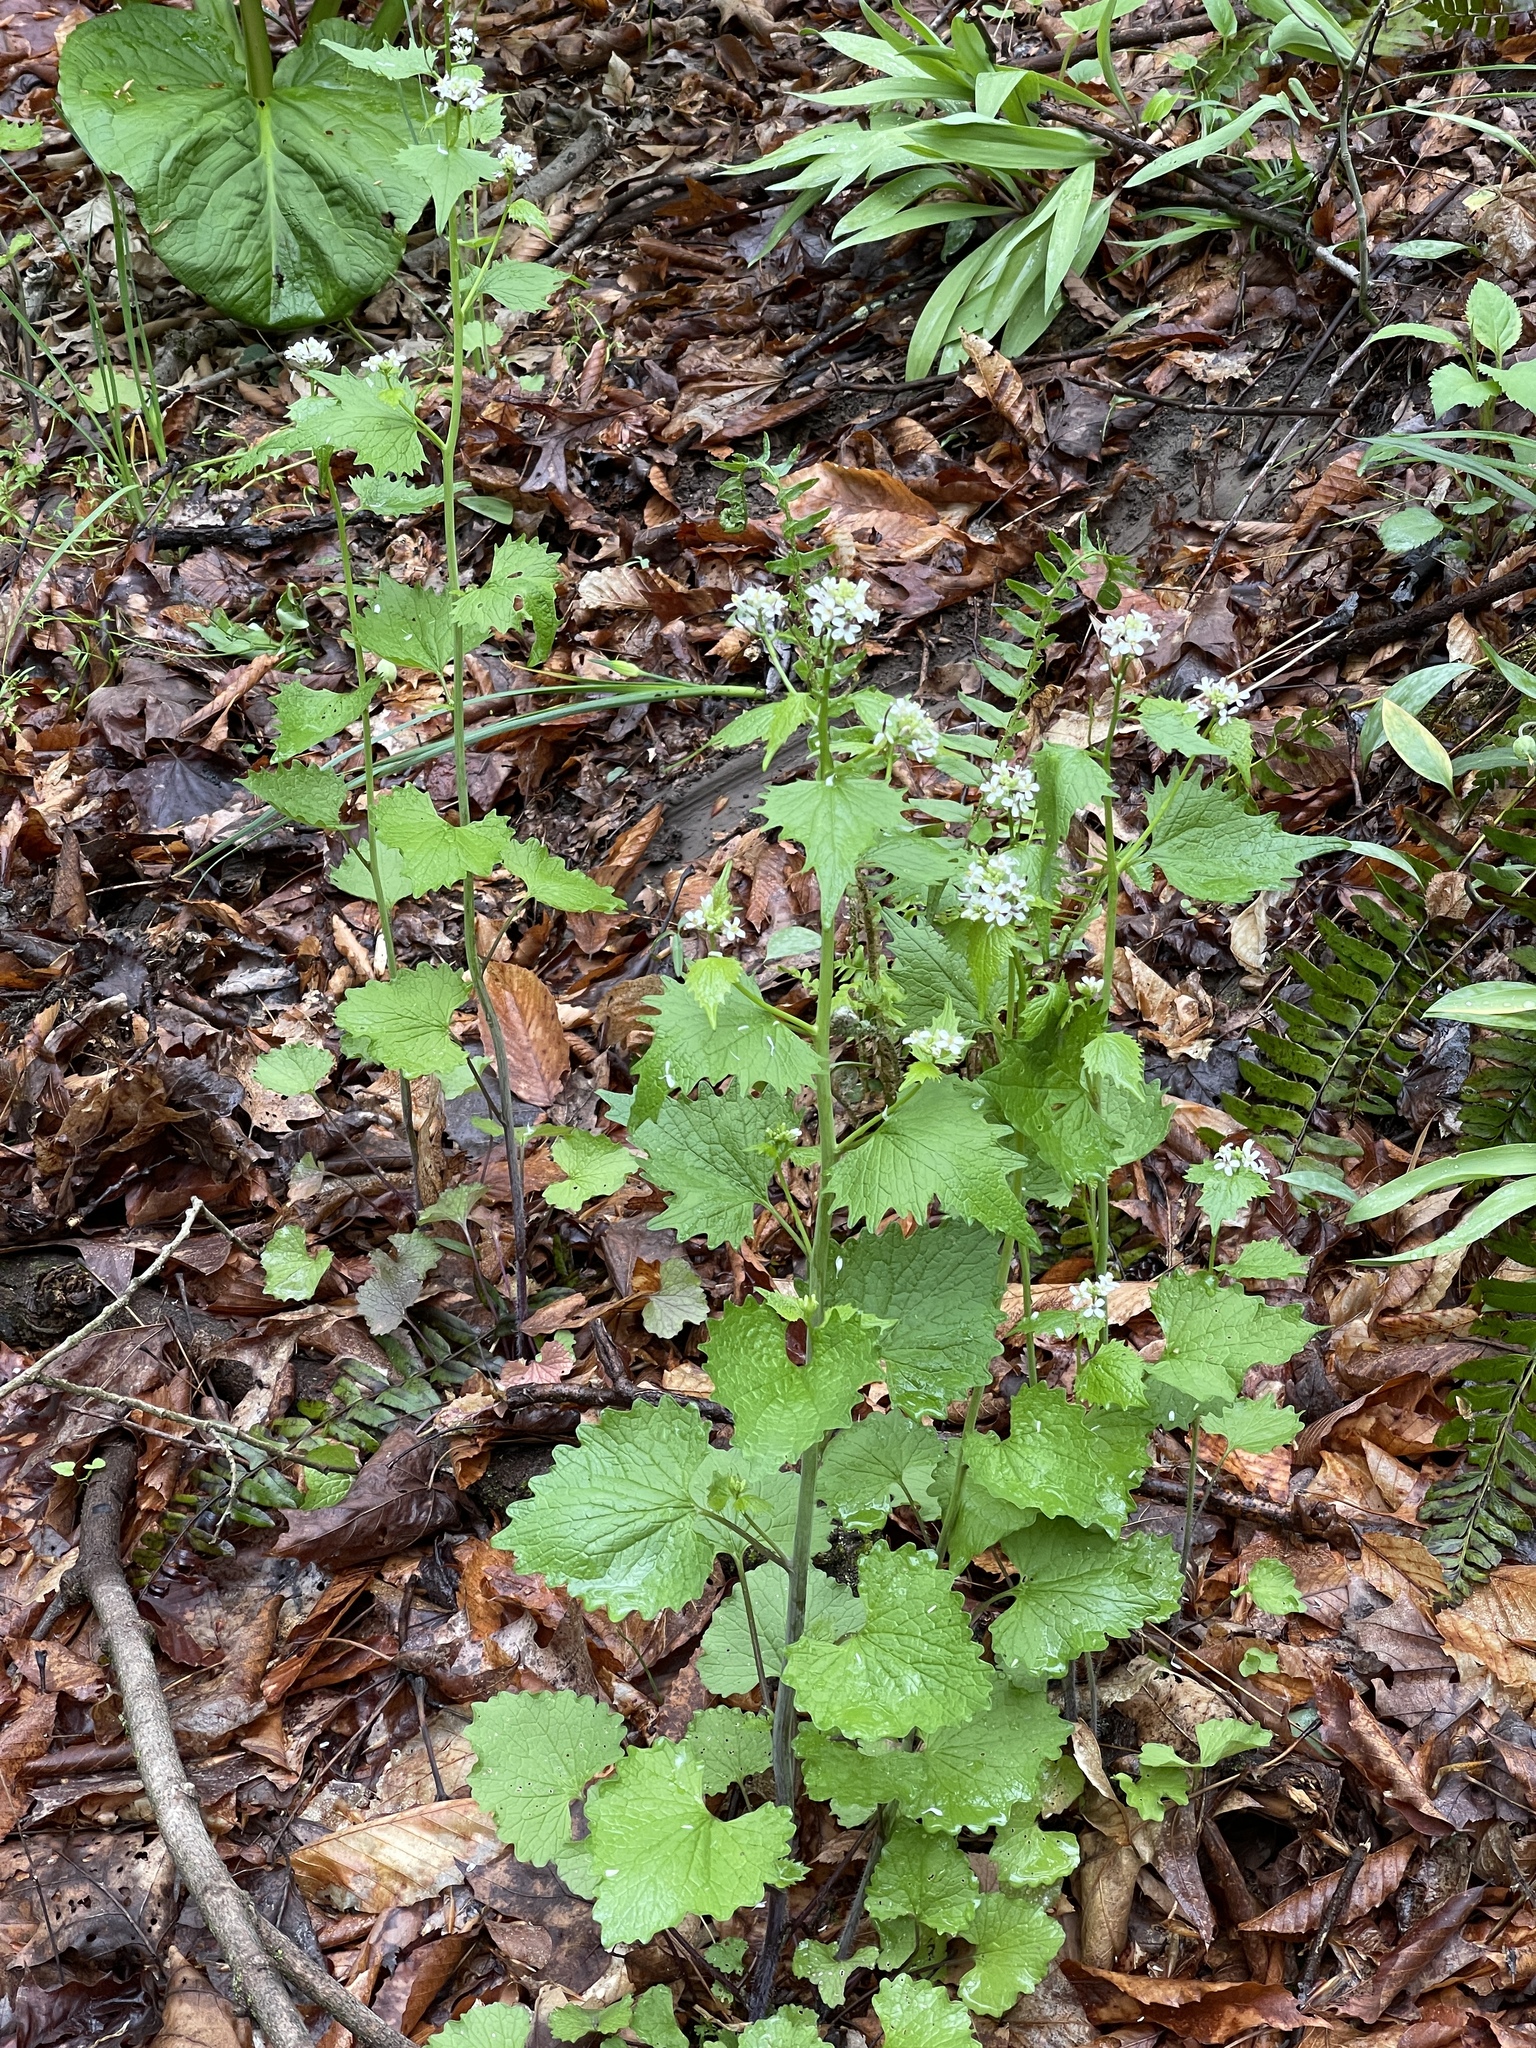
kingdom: Plantae
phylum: Tracheophyta
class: Magnoliopsida
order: Brassicales
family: Brassicaceae
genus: Alliaria
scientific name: Alliaria petiolata
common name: Garlic mustard
